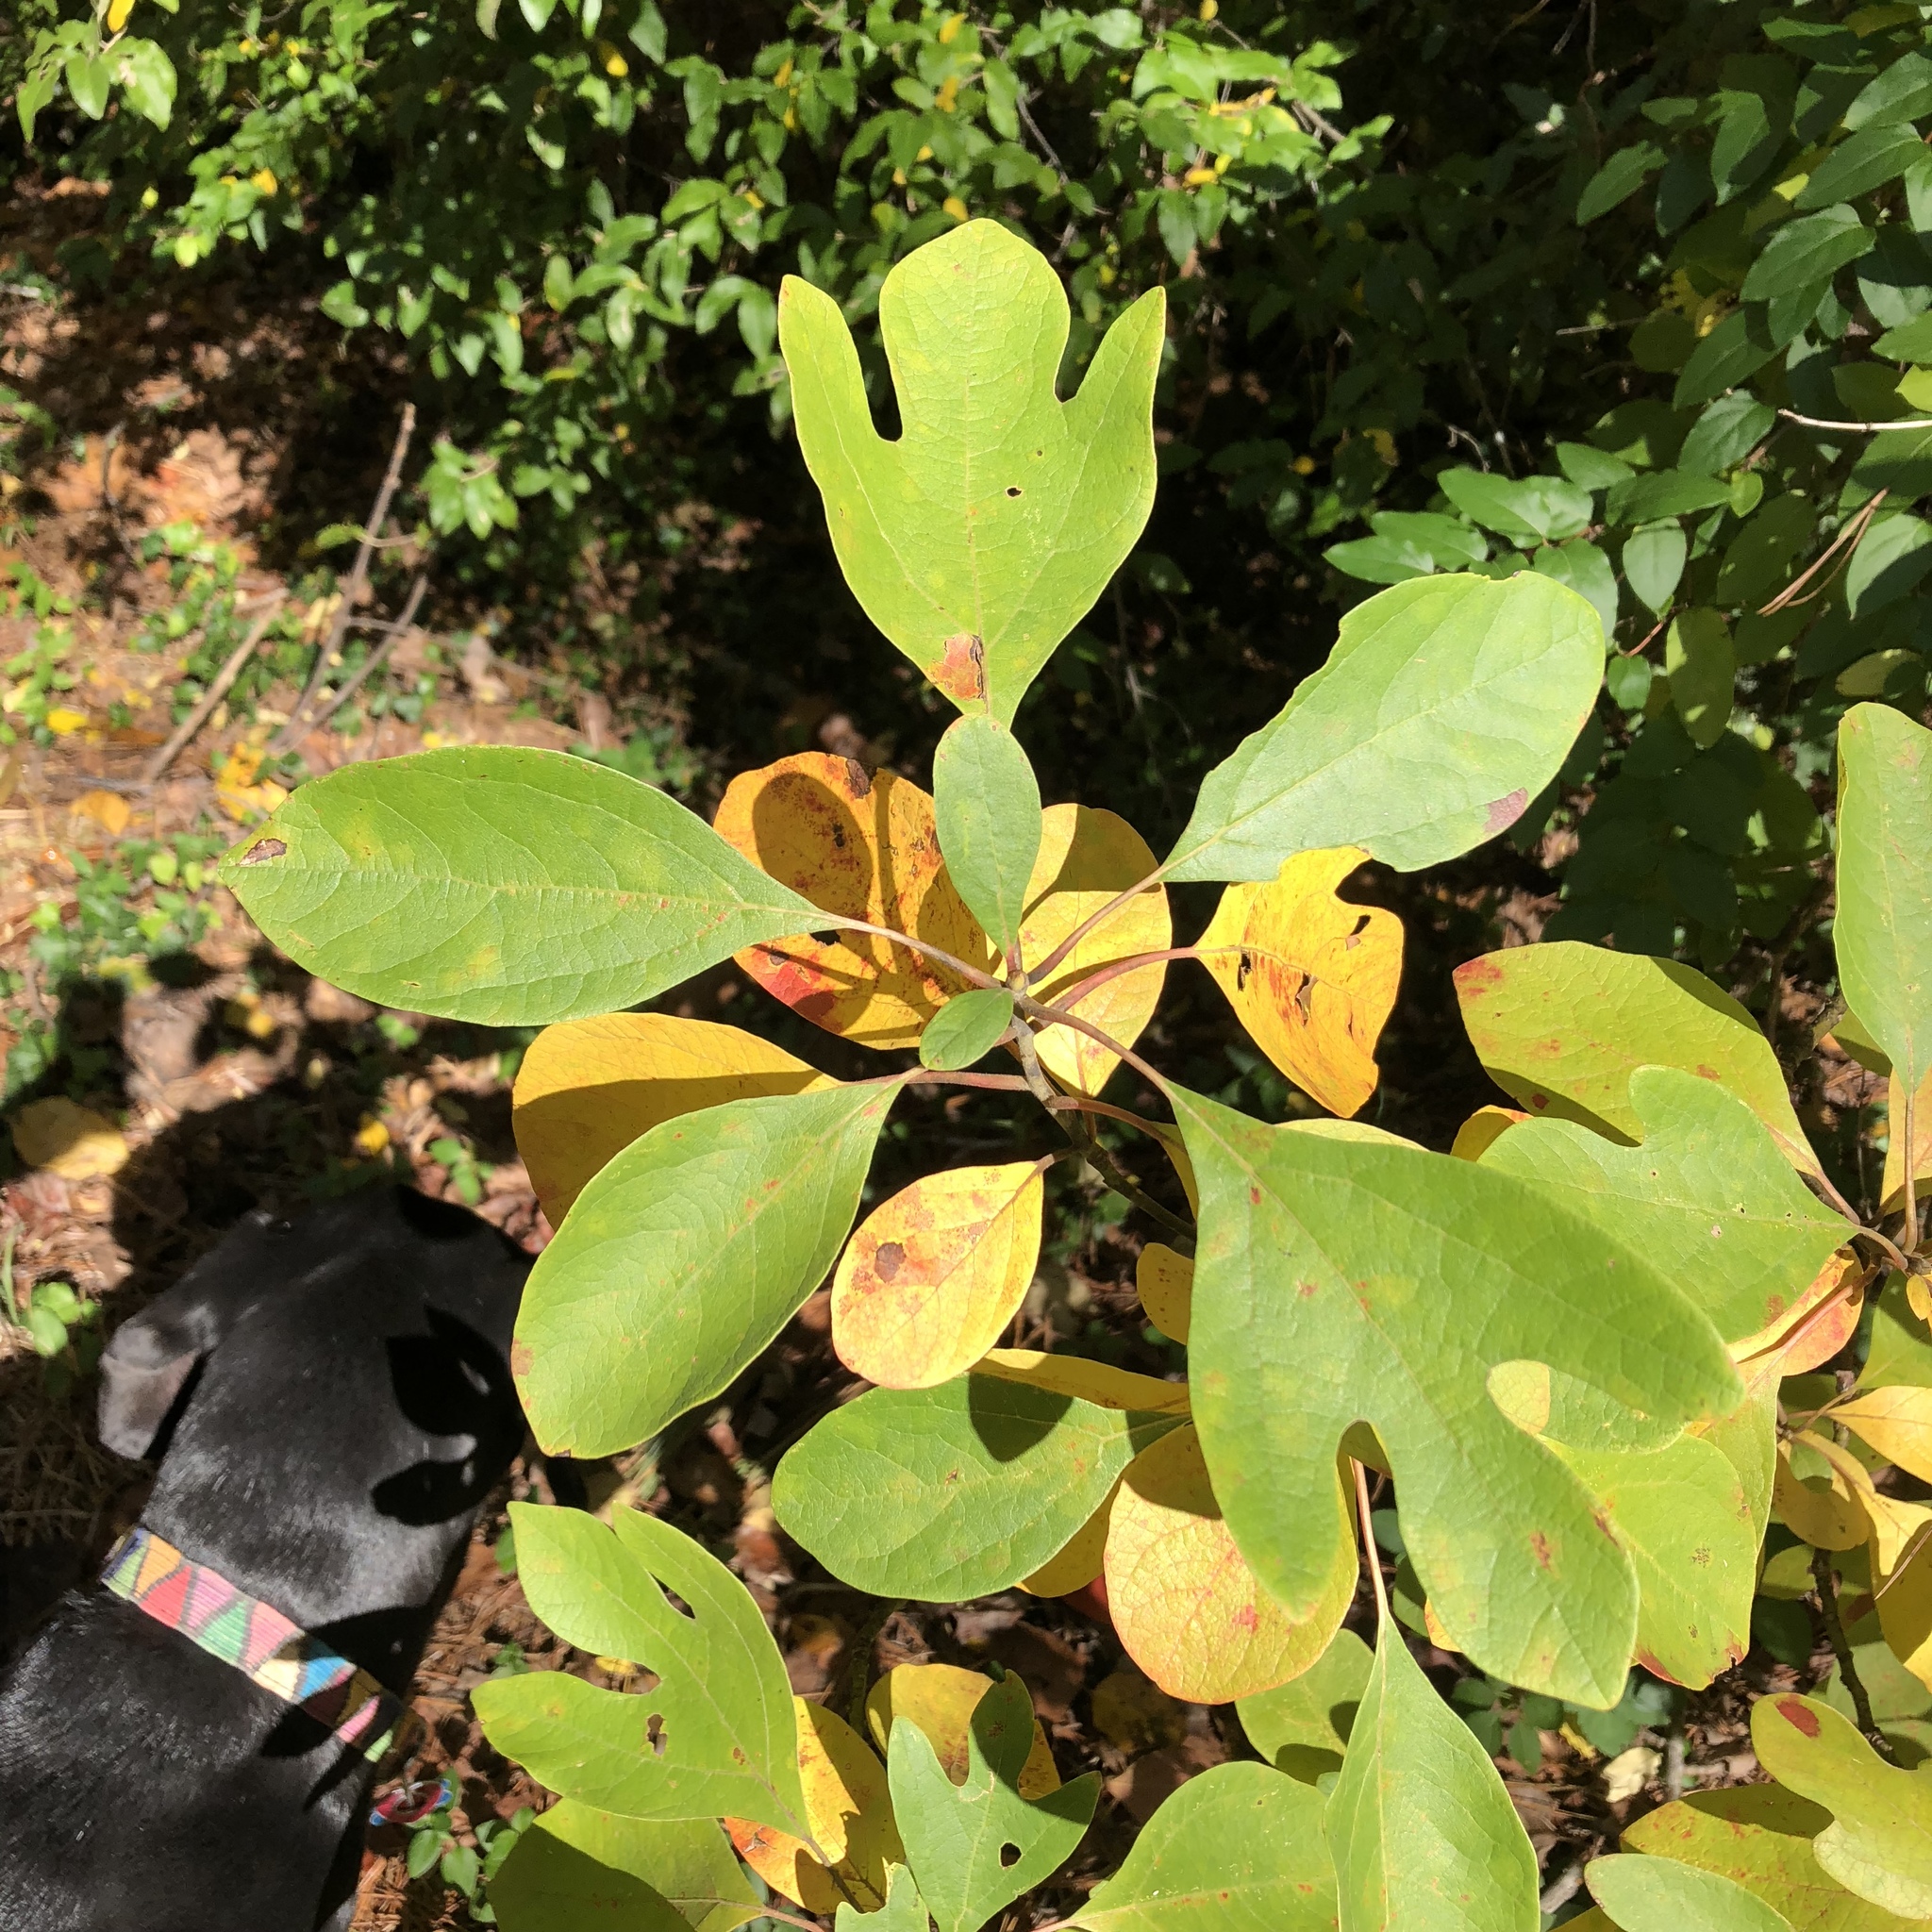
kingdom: Plantae
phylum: Tracheophyta
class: Magnoliopsida
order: Laurales
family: Lauraceae
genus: Sassafras
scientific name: Sassafras albidum
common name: Sassafras
